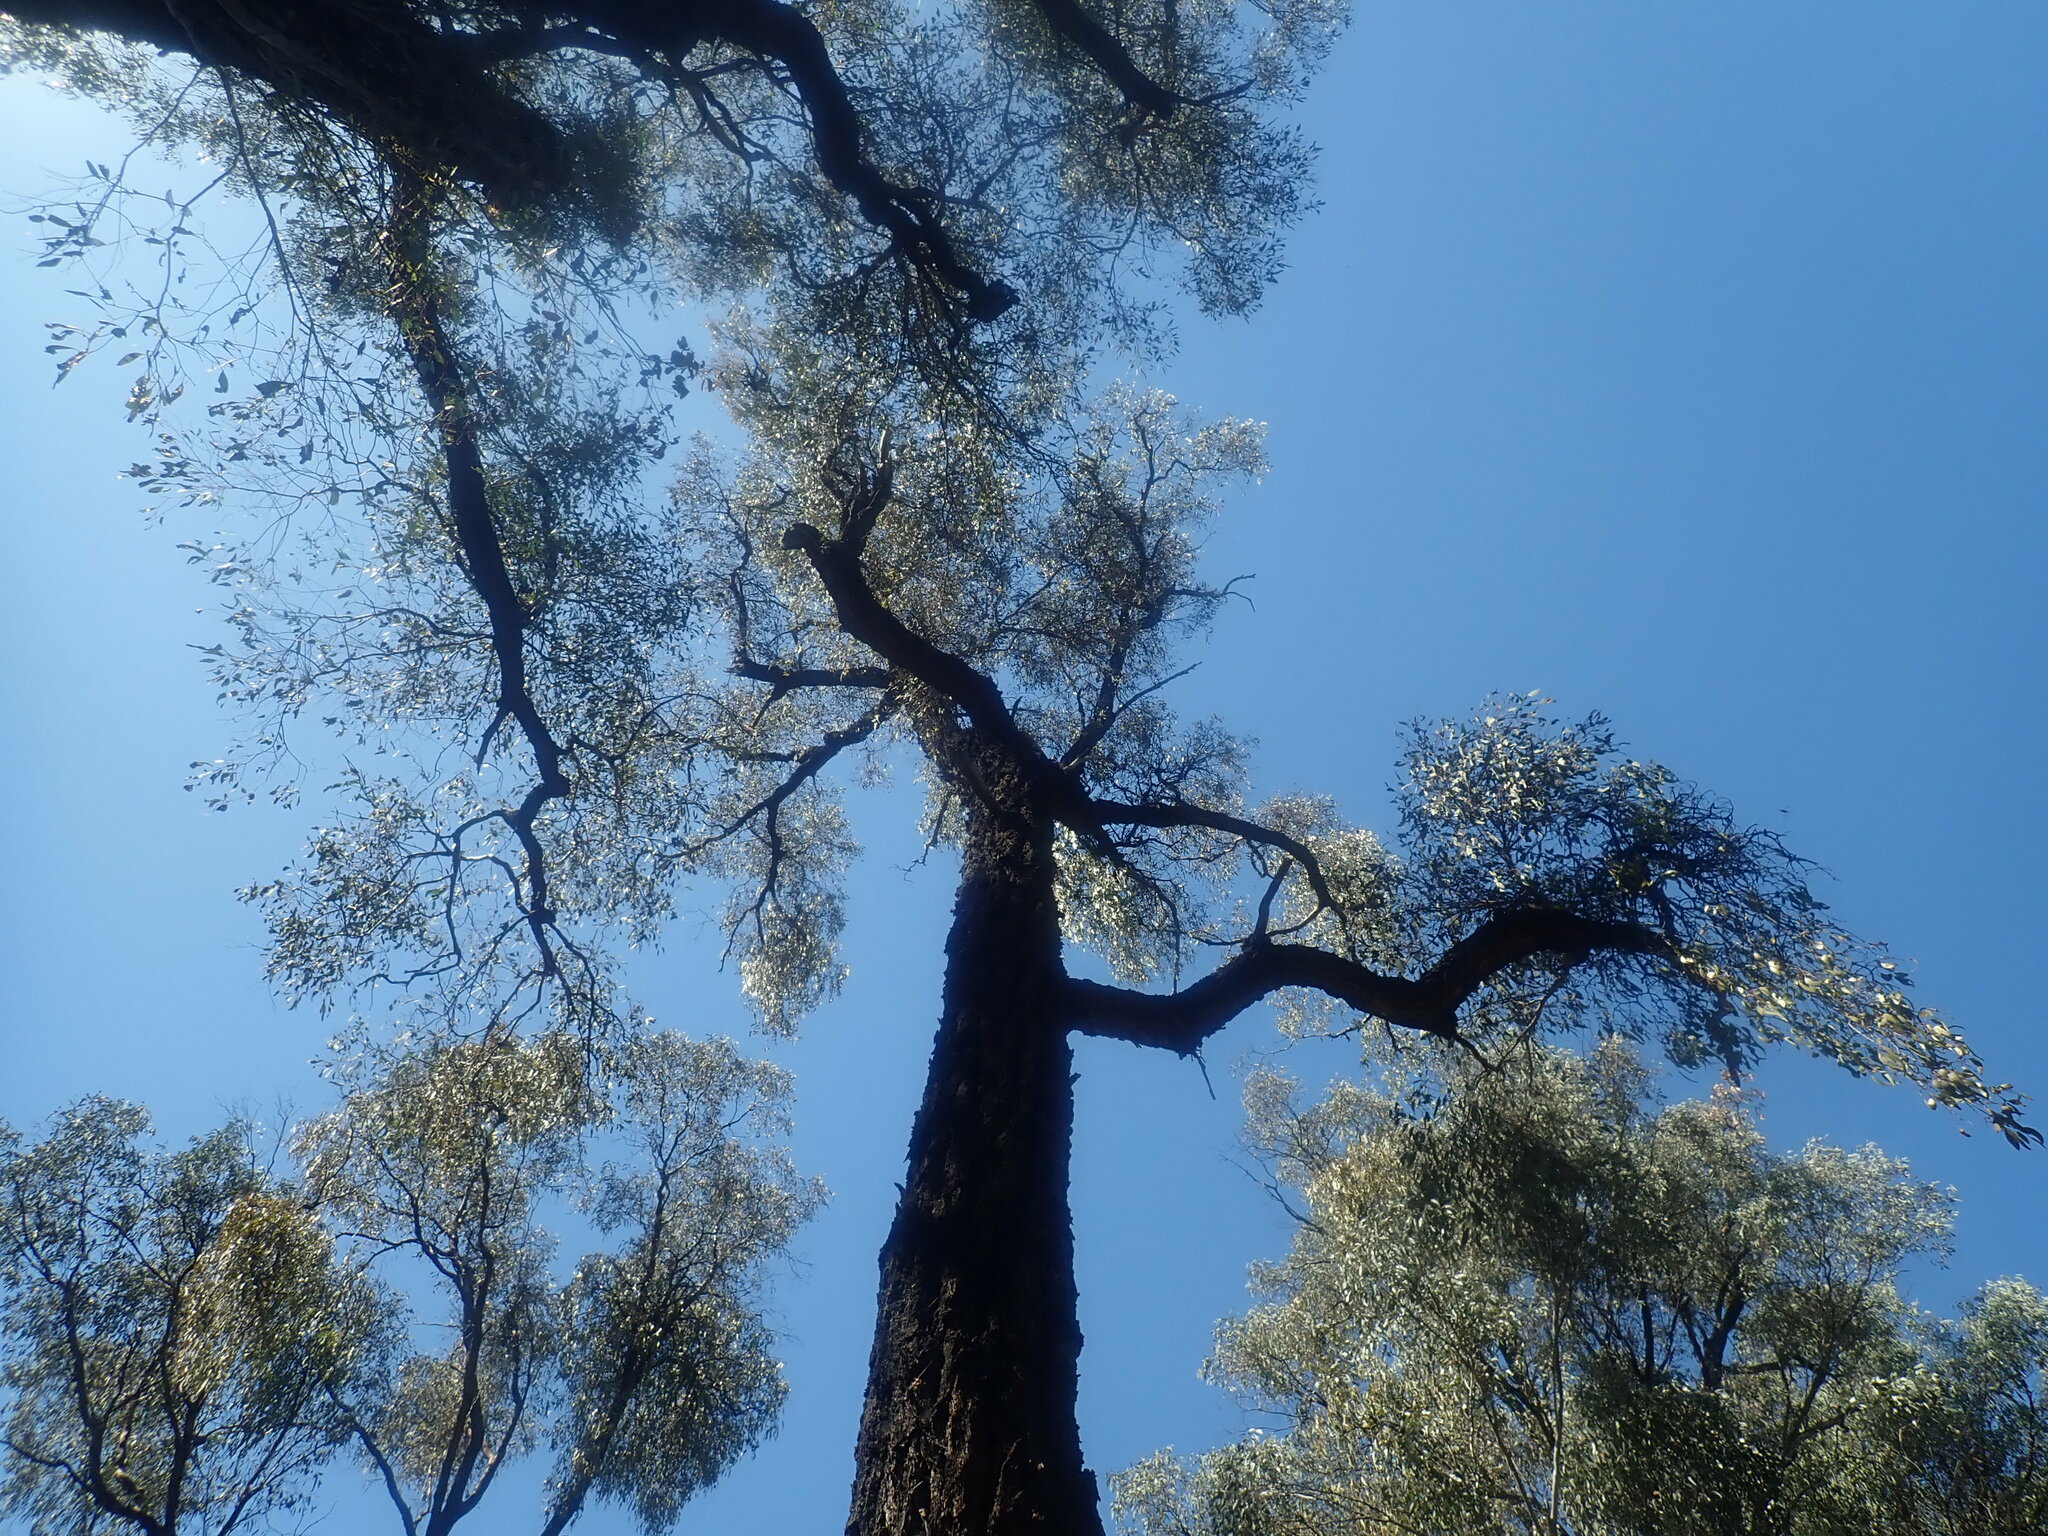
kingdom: Plantae
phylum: Tracheophyta
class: Magnoliopsida
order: Myrtales
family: Myrtaceae
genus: Eucalyptus
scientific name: Eucalyptus sideroxylon
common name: Red ironbark
